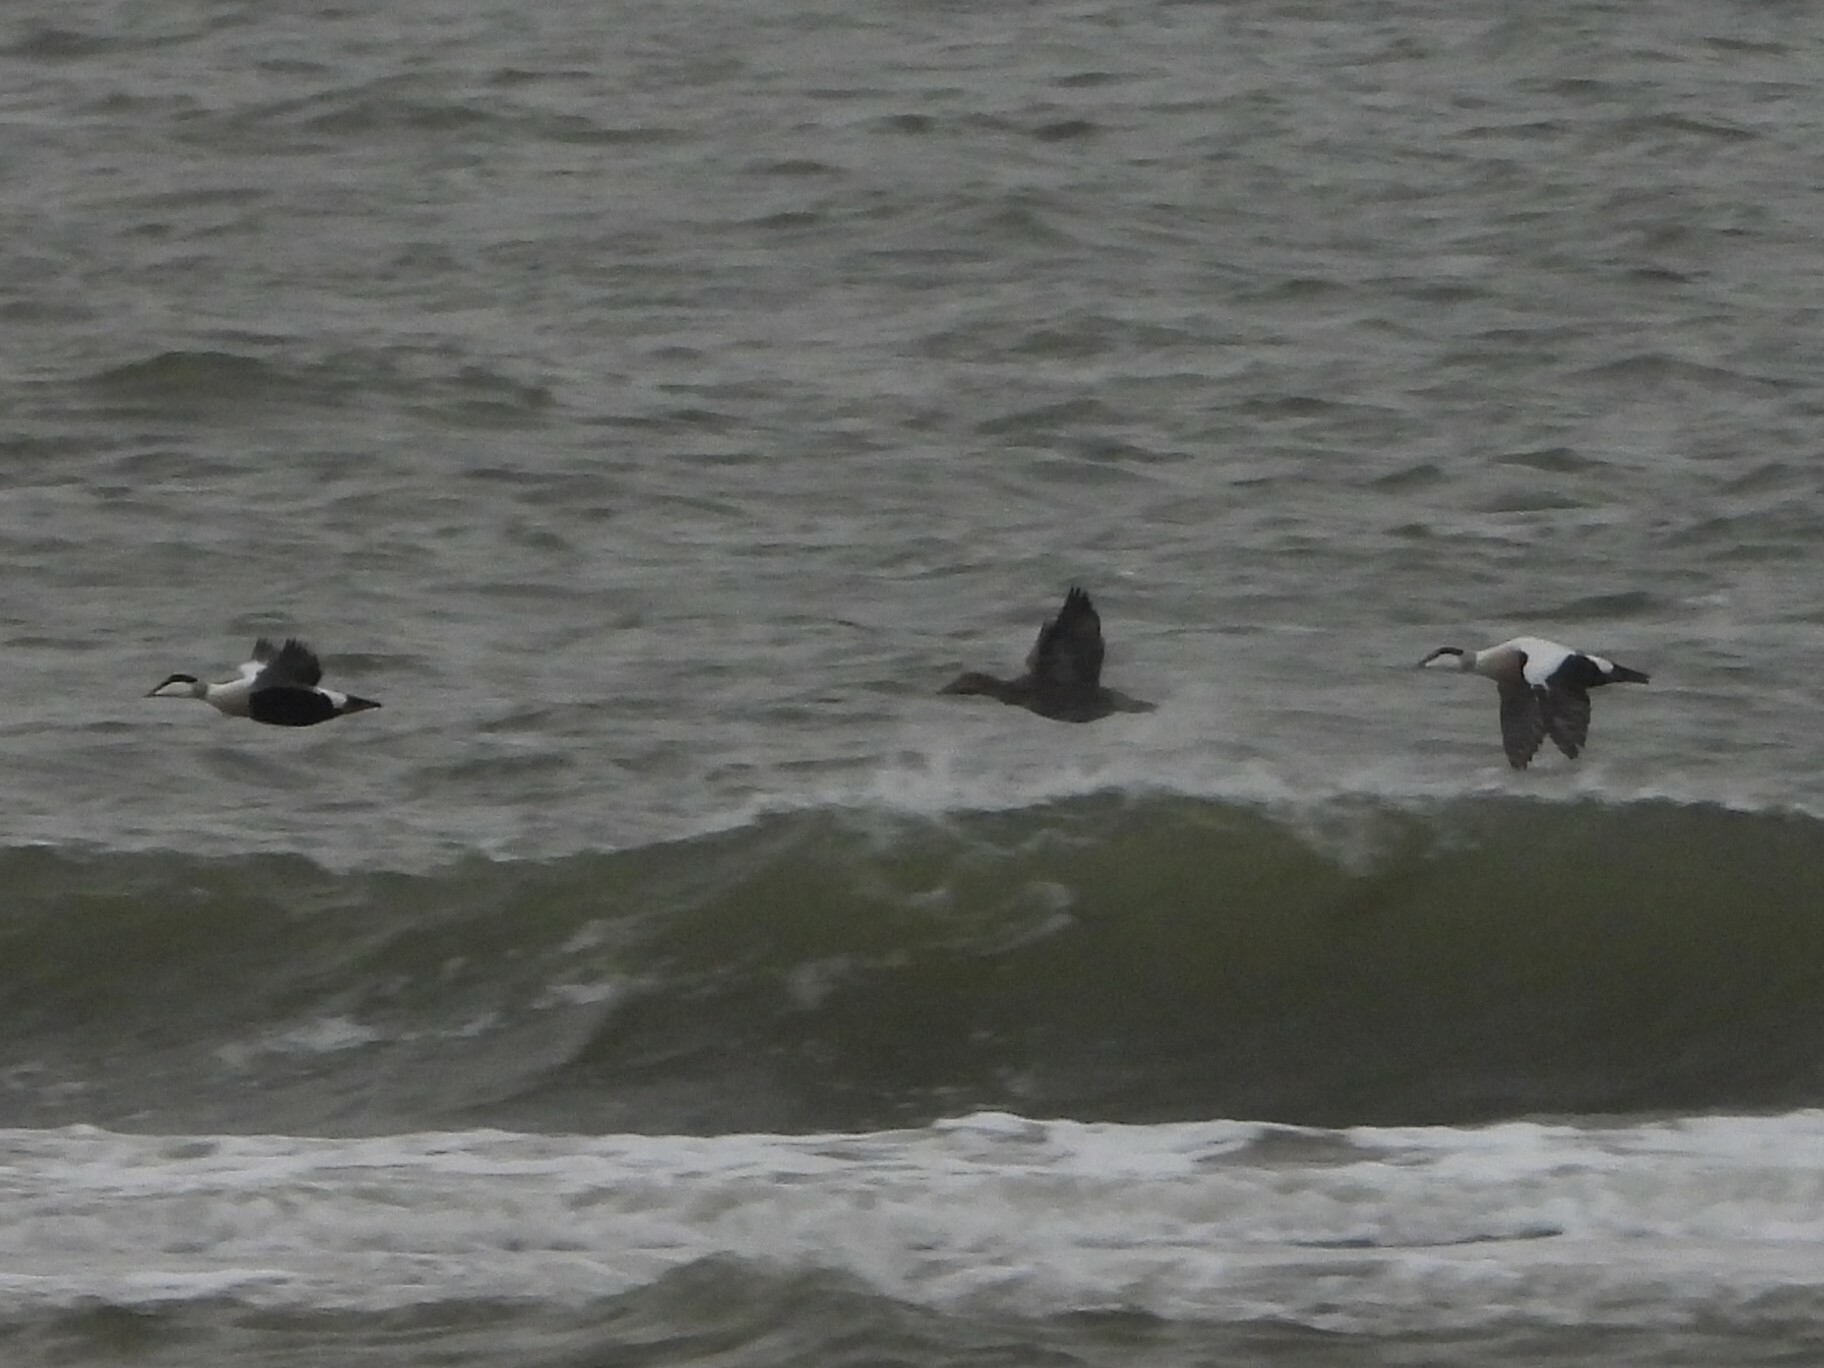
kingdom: Animalia
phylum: Chordata
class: Aves
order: Anseriformes
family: Anatidae
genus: Somateria
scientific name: Somateria mollissima
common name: Common eider
